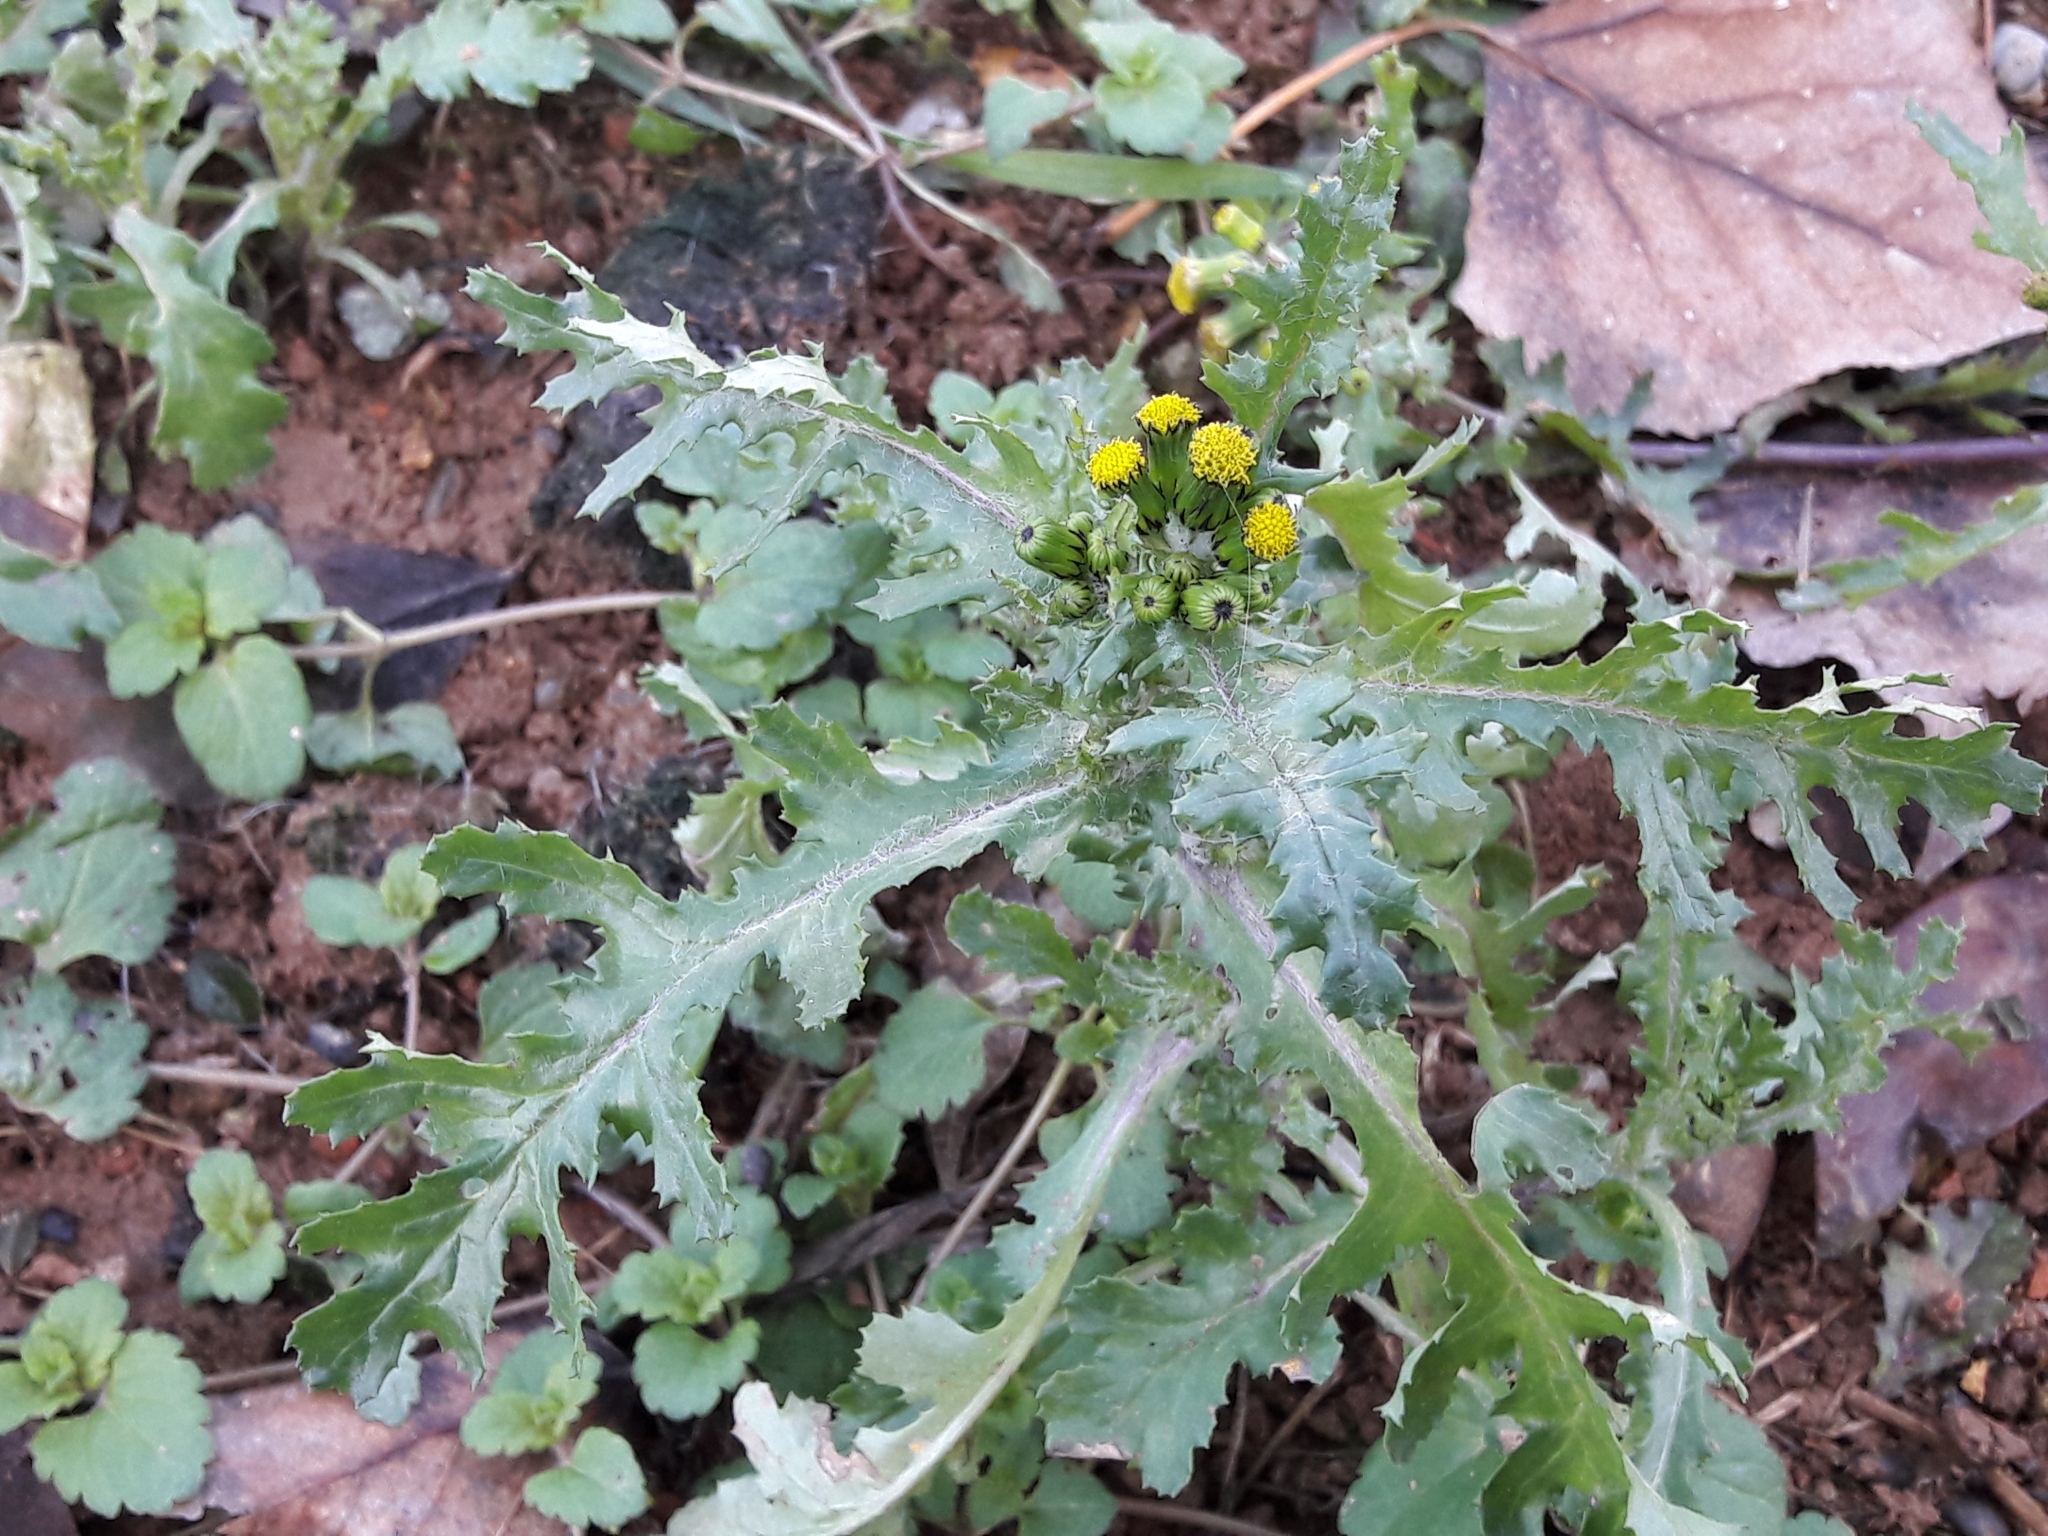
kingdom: Plantae
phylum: Tracheophyta
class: Magnoliopsida
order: Asterales
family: Asteraceae
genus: Senecio
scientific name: Senecio vulgaris
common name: Old-man-in-the-spring
